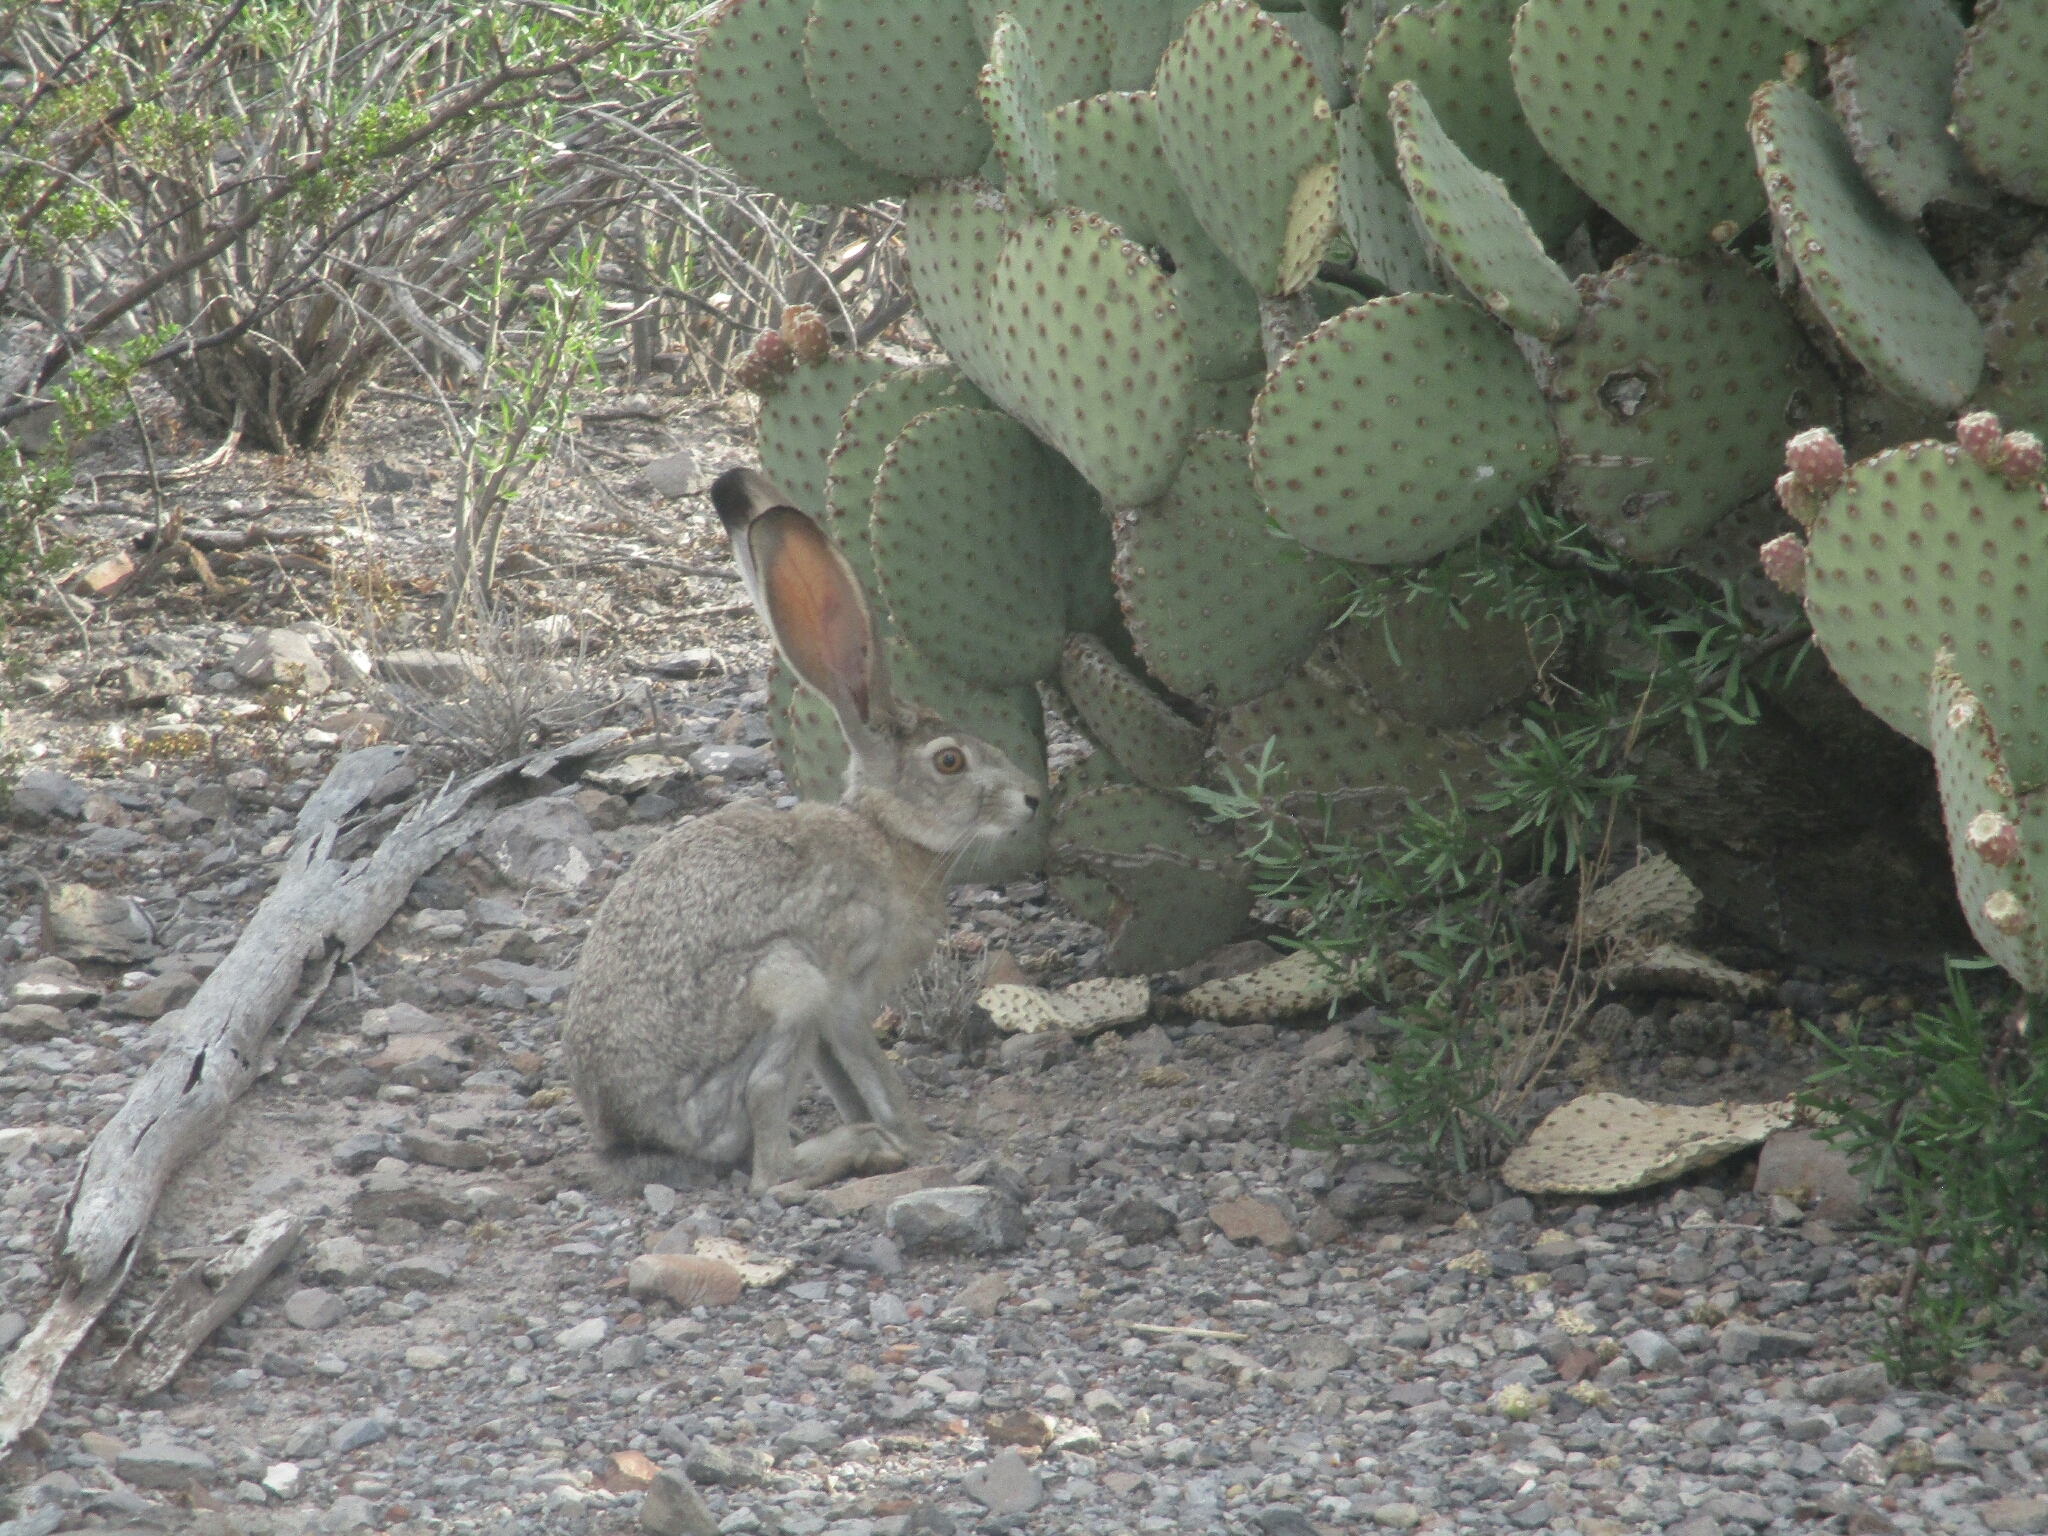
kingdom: Animalia
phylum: Chordata
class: Mammalia
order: Lagomorpha
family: Leporidae
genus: Lepus
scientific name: Lepus californicus
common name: Black-tailed jackrabbit
